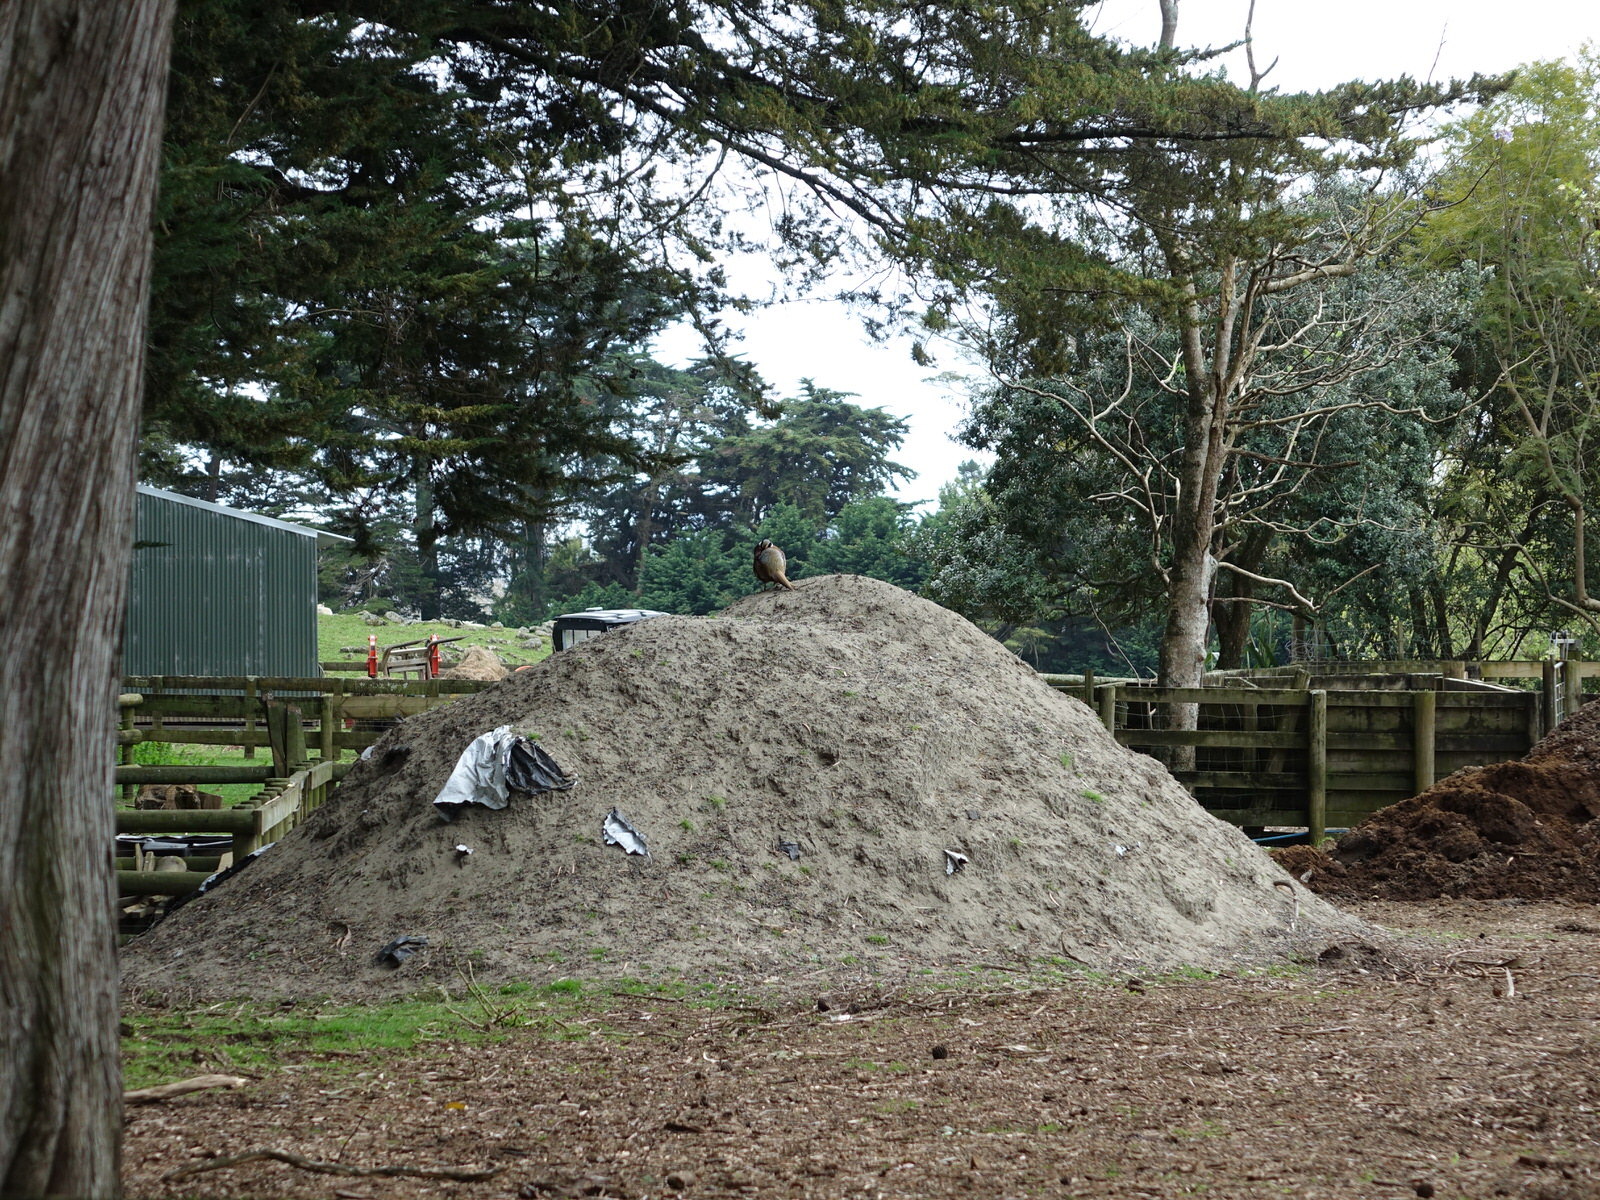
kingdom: Animalia
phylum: Chordata
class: Aves
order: Galliformes
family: Phasianidae
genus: Phasianus
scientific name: Phasianus colchicus
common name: Common pheasant
